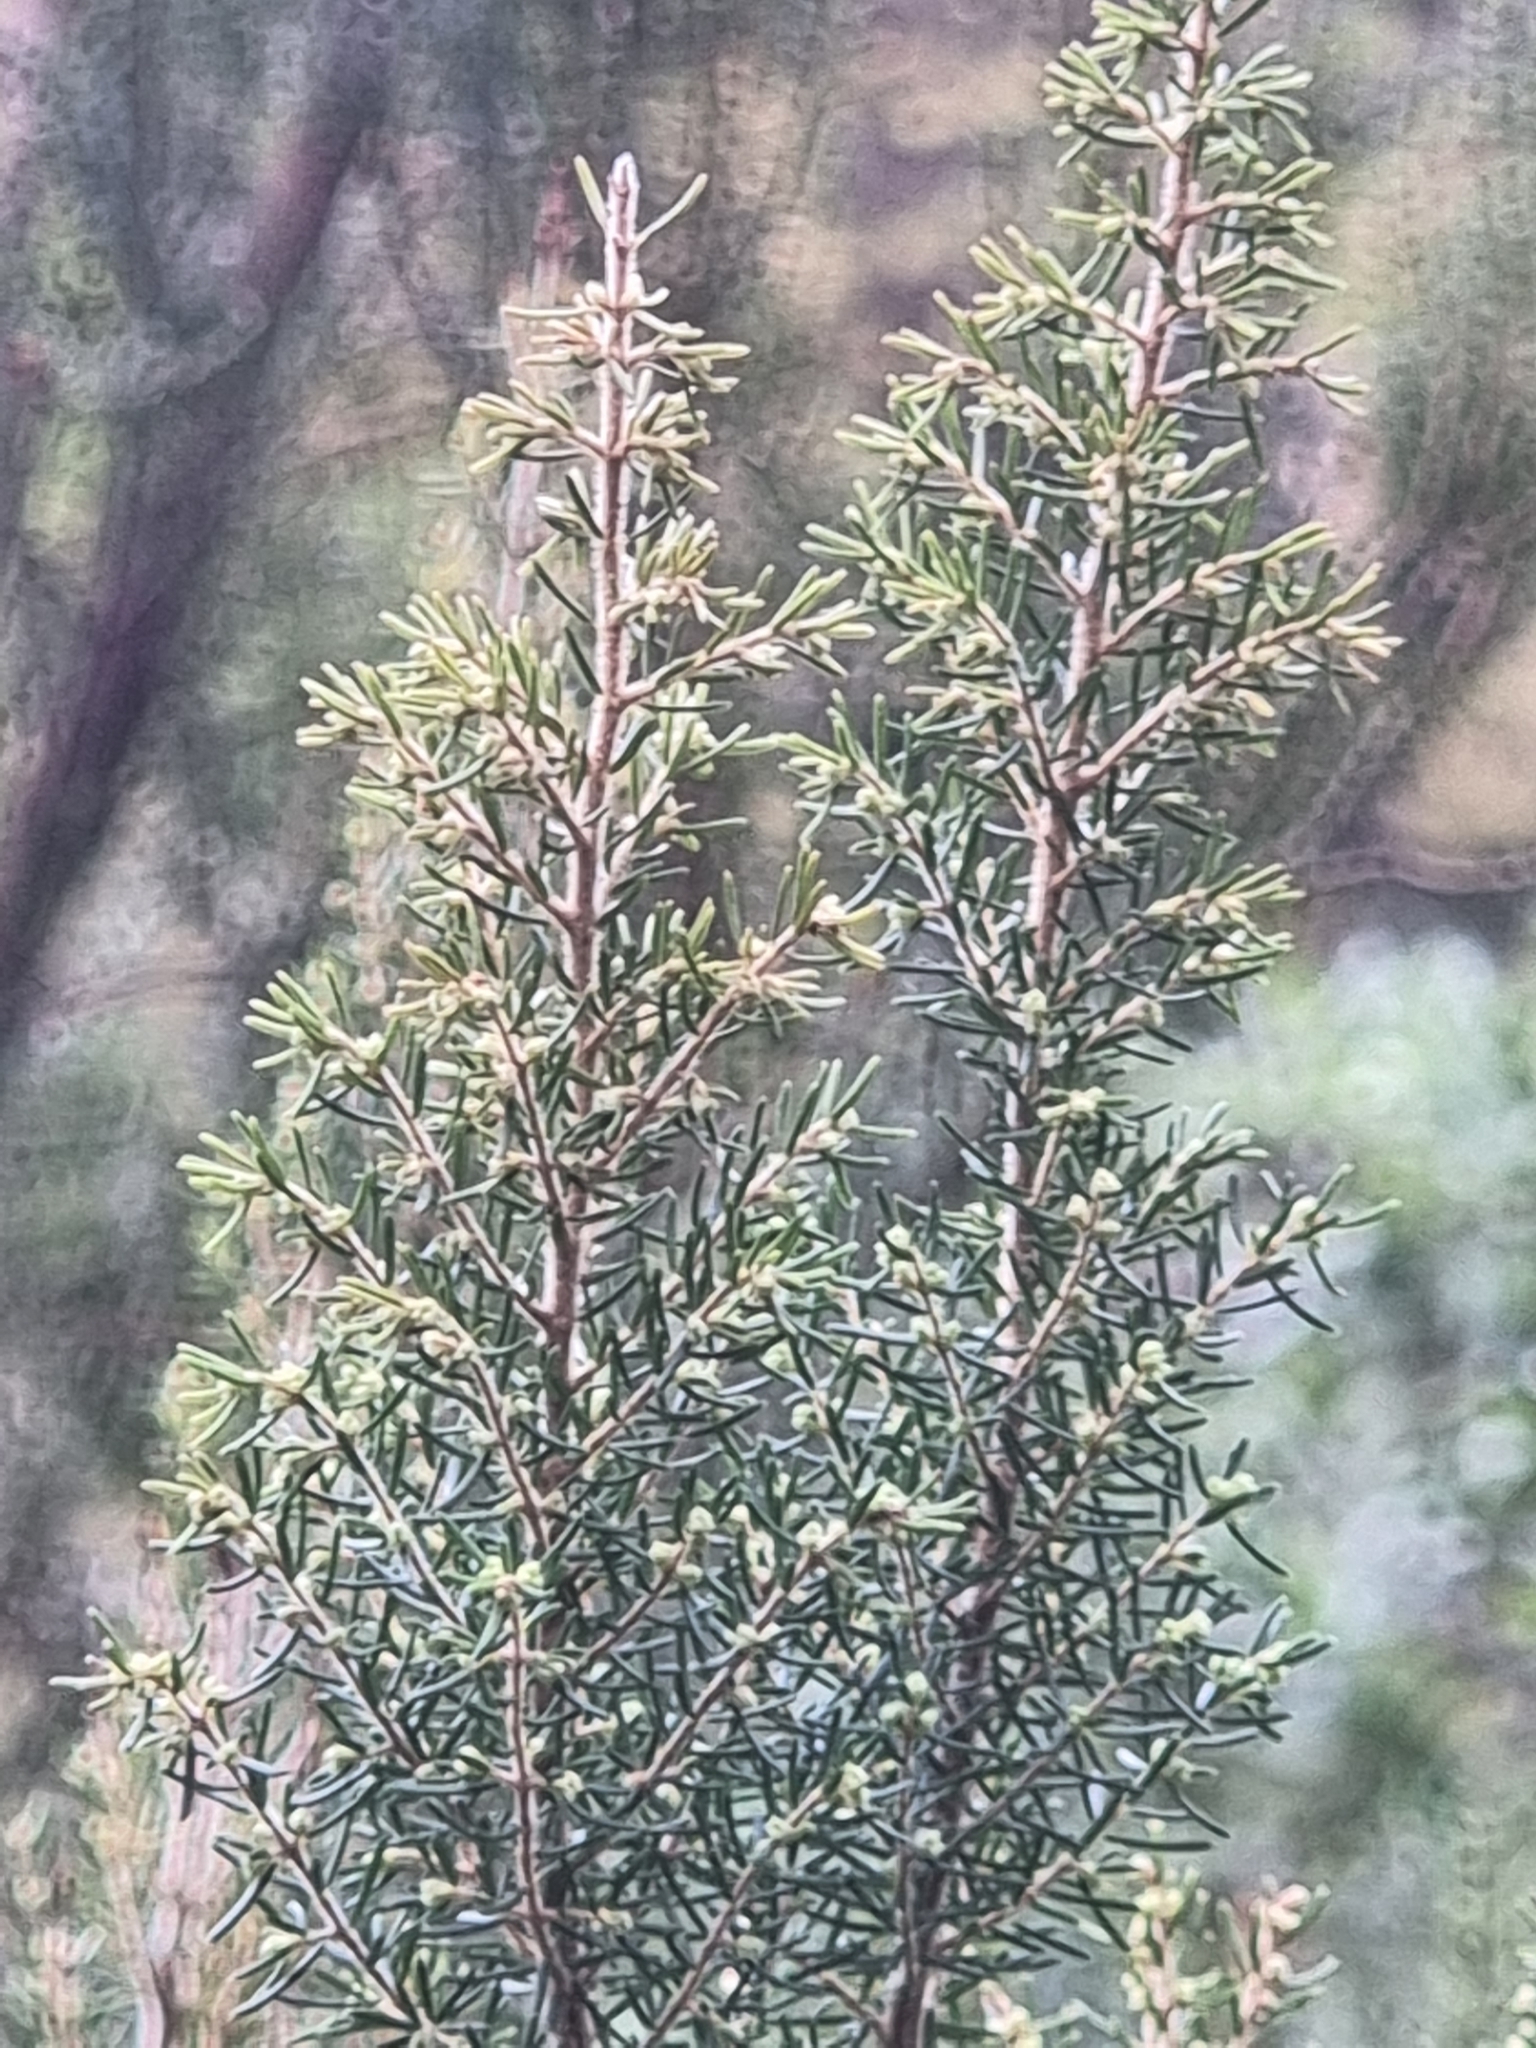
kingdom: Plantae
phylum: Tracheophyta
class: Magnoliopsida
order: Ericales
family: Ericaceae
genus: Erica
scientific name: Erica canariensis
